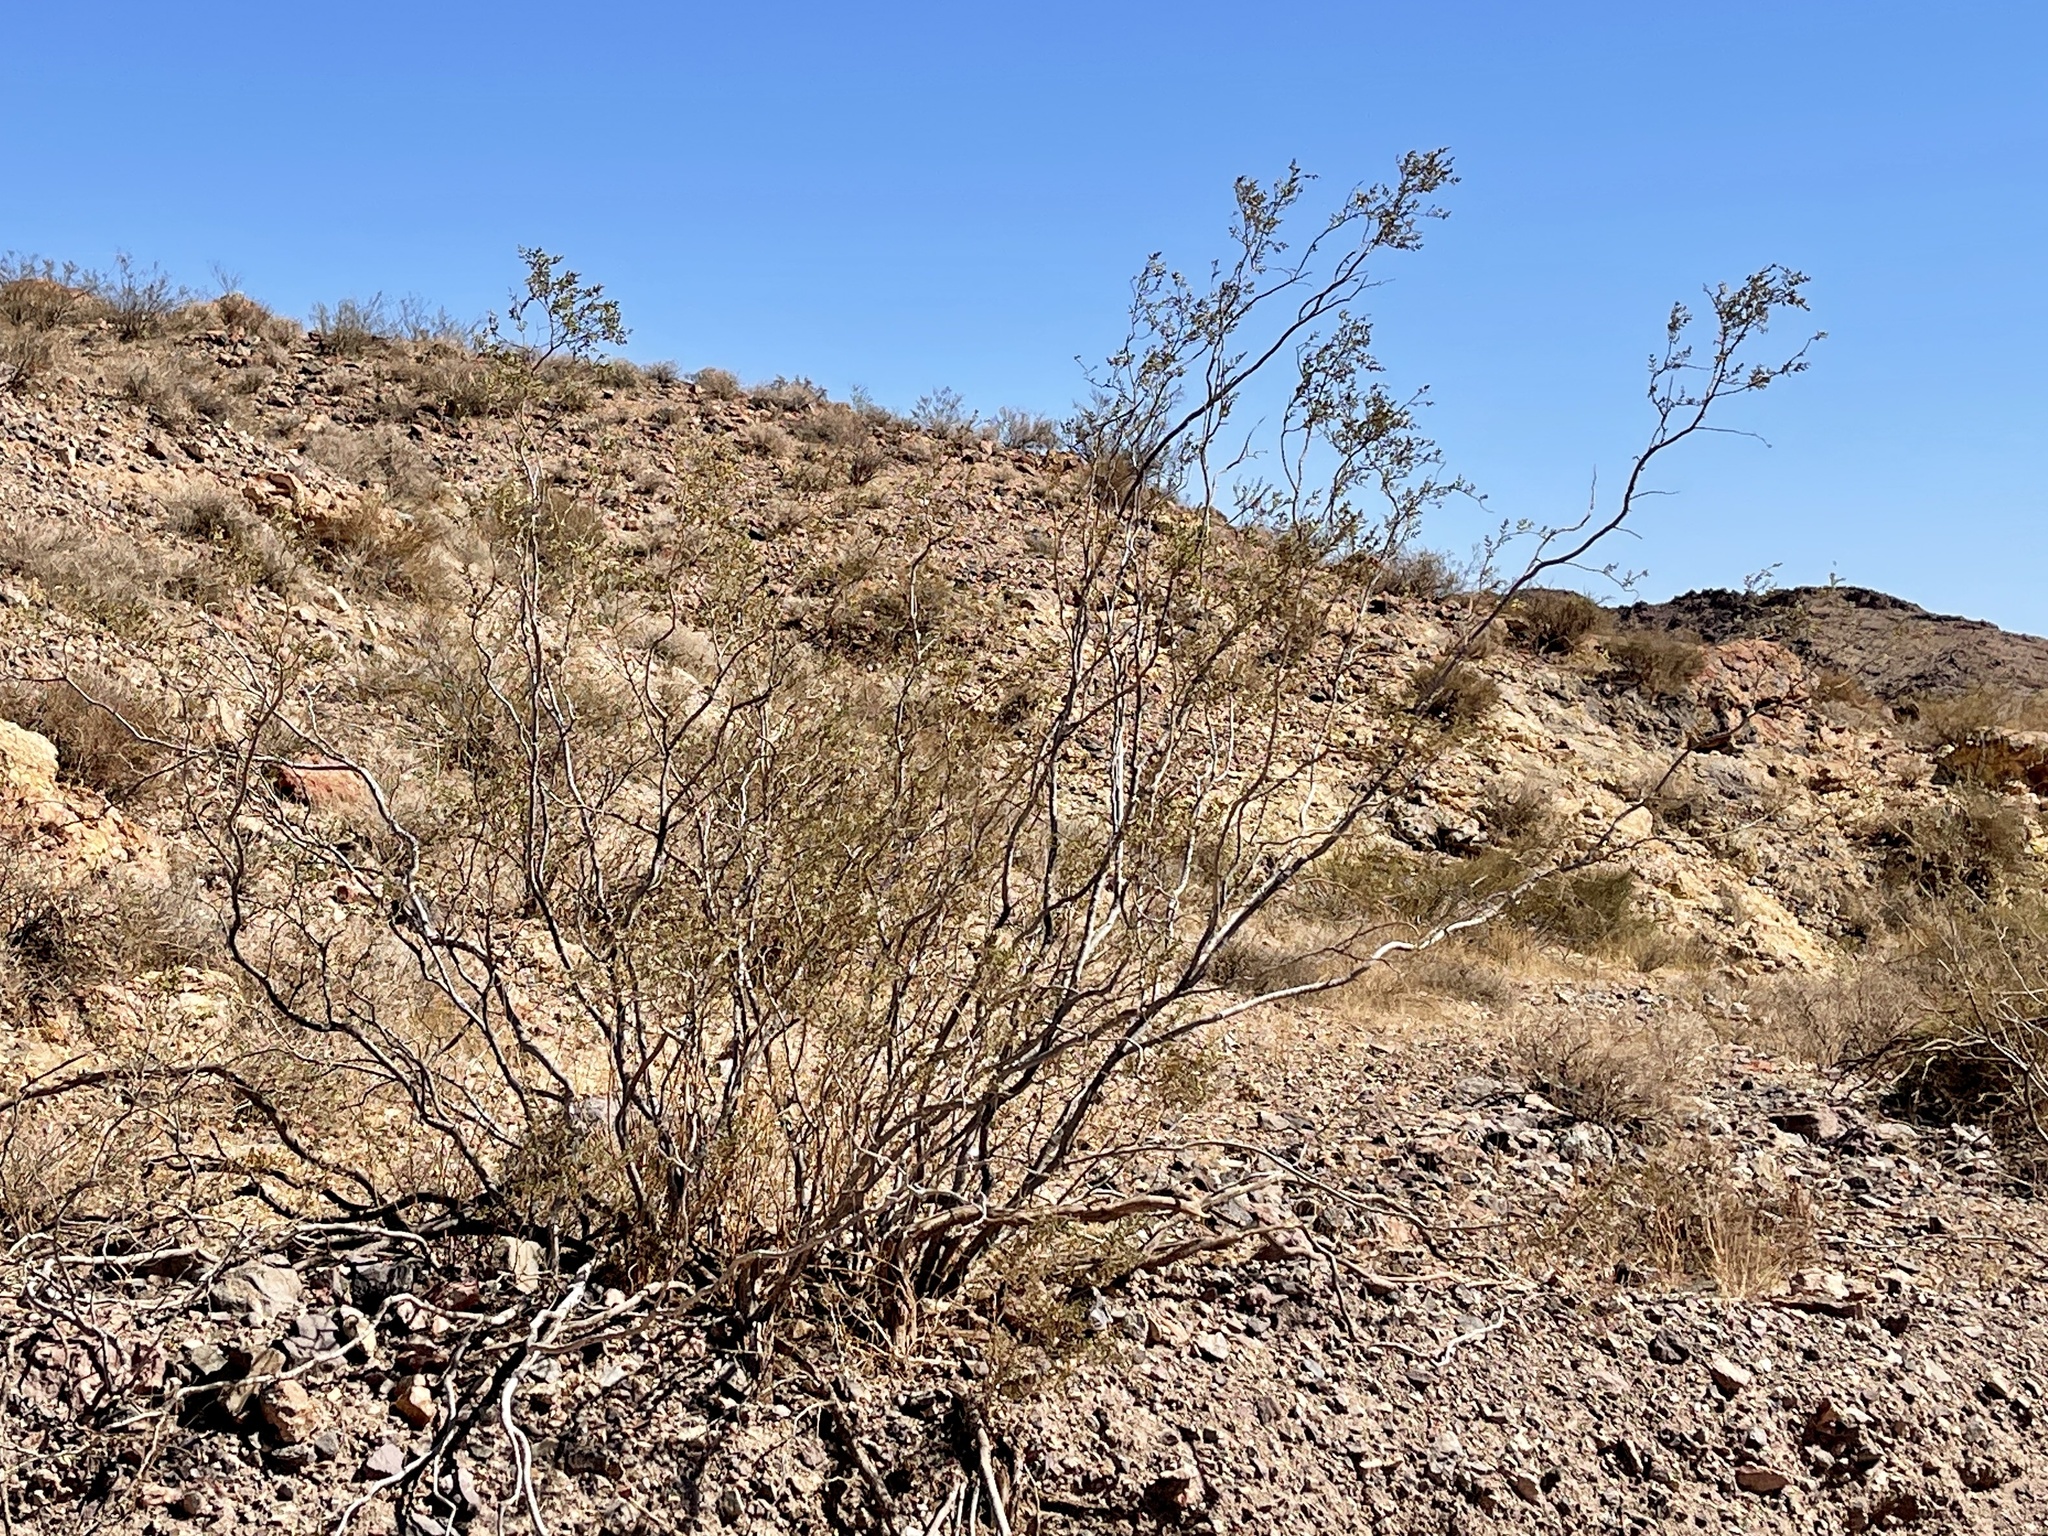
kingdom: Plantae
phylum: Tracheophyta
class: Magnoliopsida
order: Zygophyllales
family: Zygophyllaceae
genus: Larrea
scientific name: Larrea tridentata
